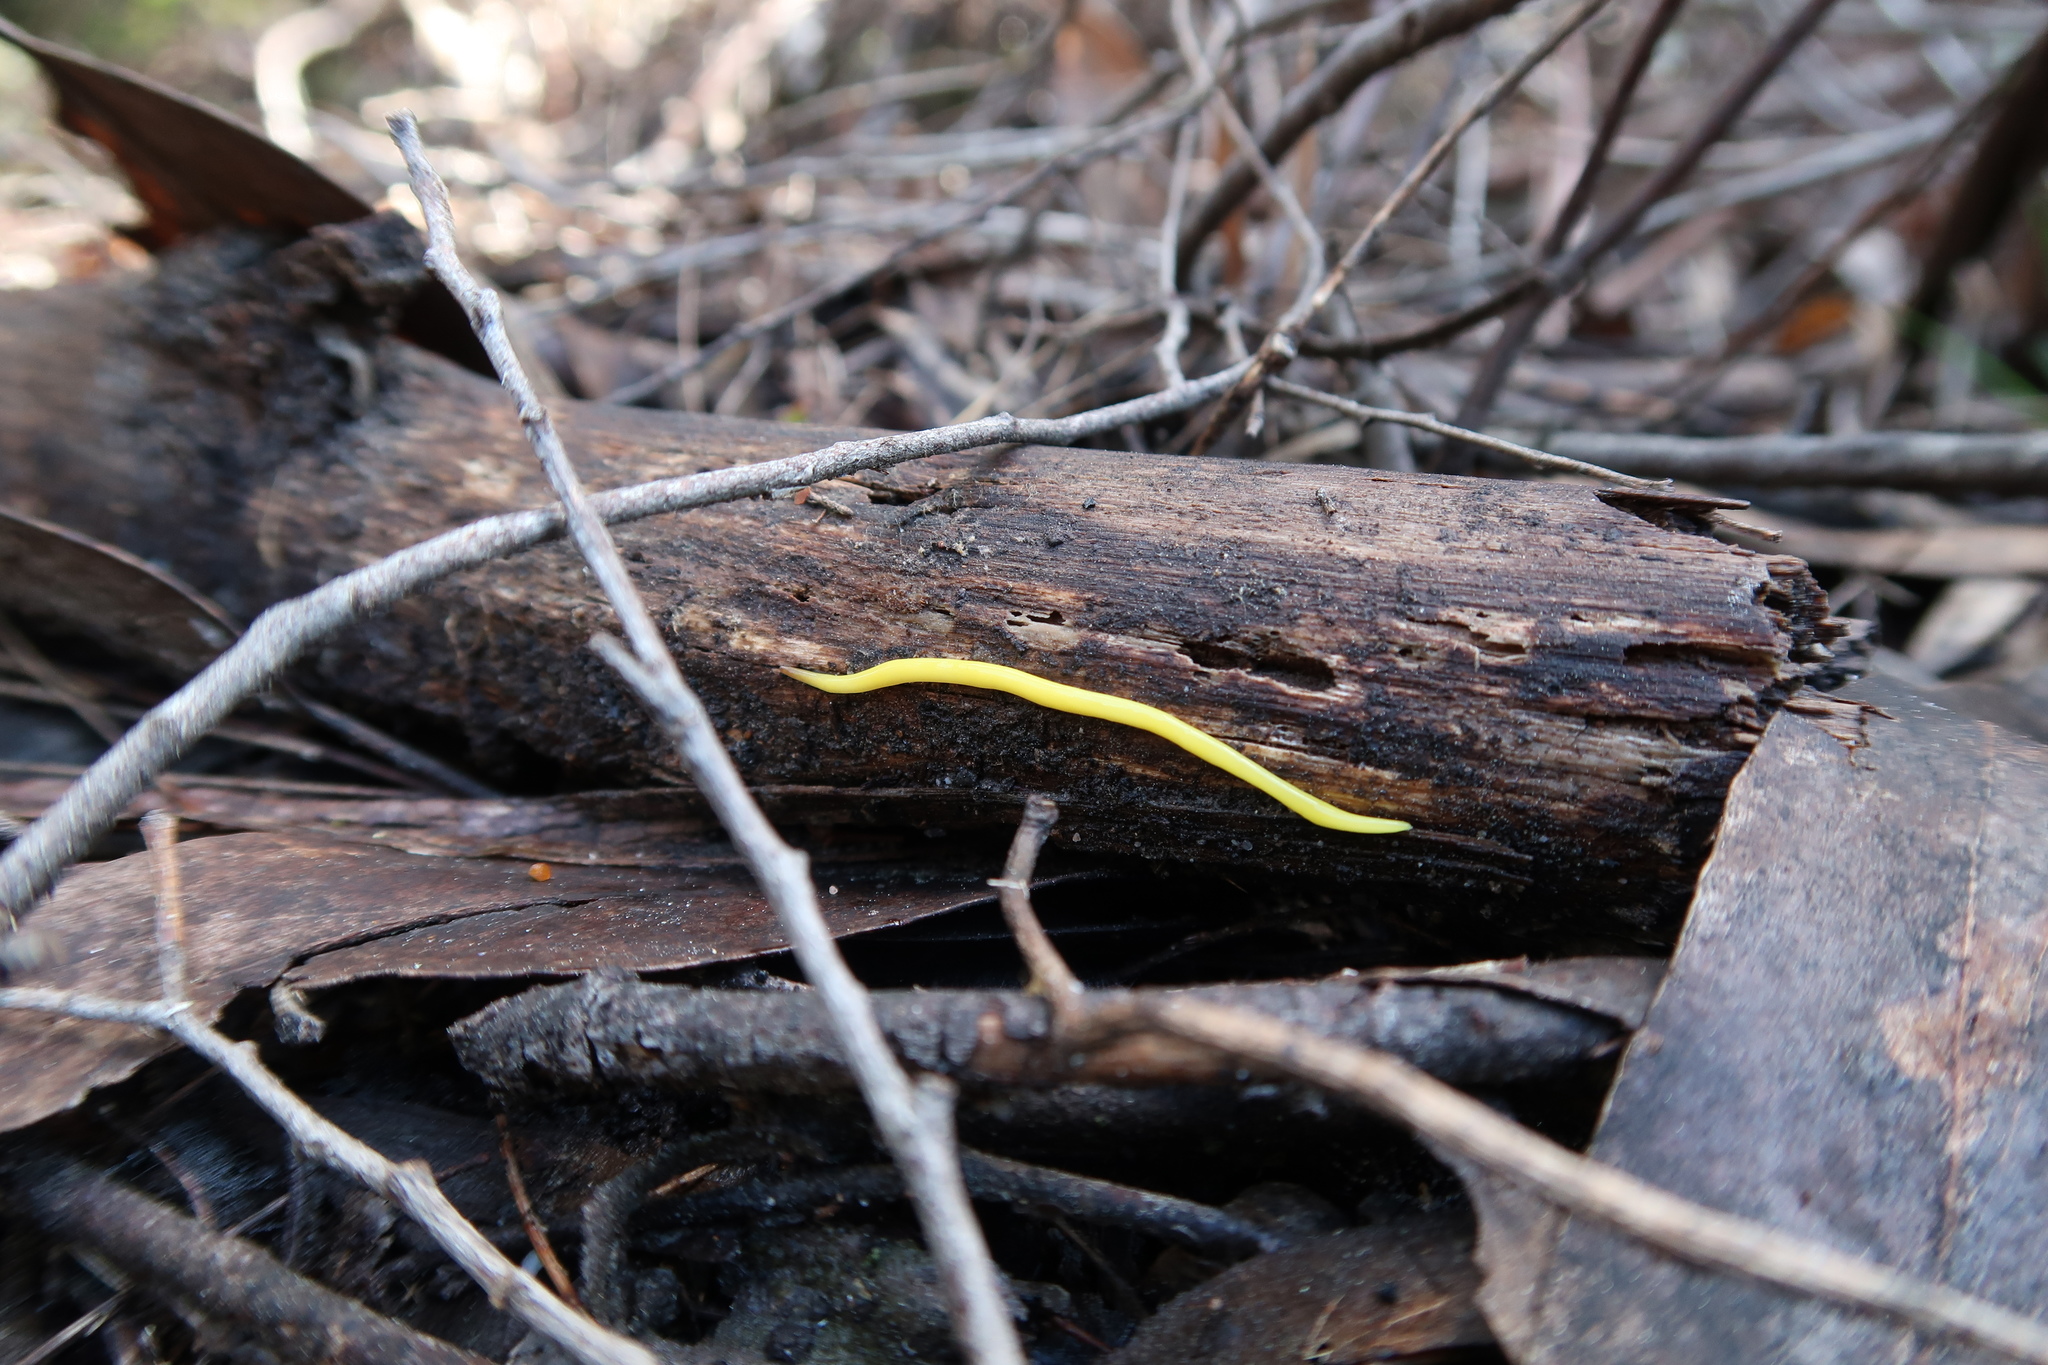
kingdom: Animalia
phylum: Platyhelminthes
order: Tricladida
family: Geoplanidae
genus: Fletchamia
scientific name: Fletchamia sugdeni
